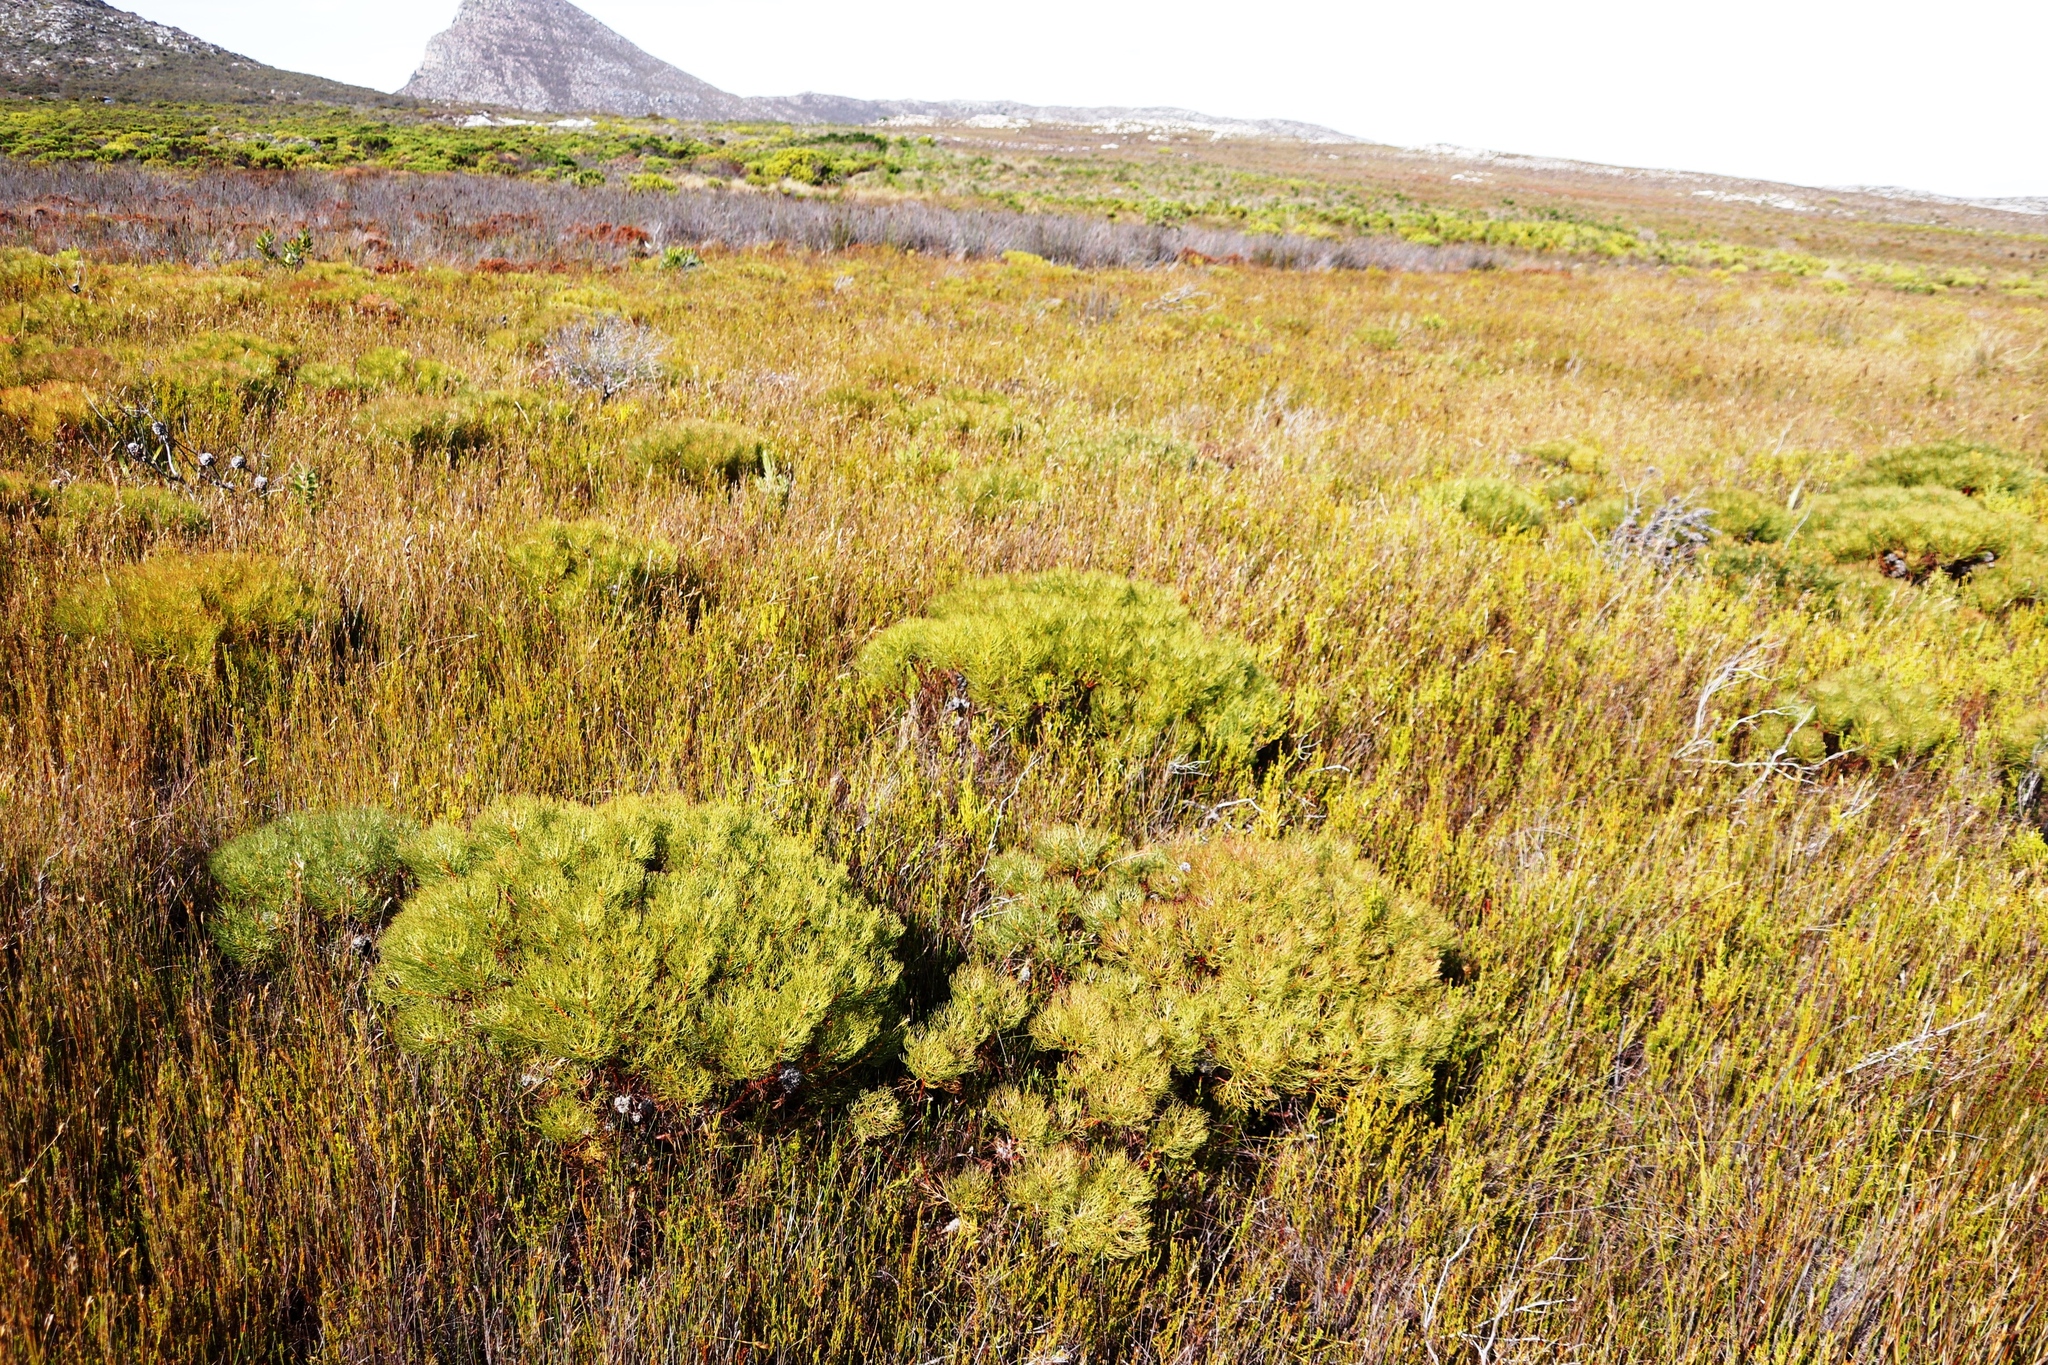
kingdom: Plantae
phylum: Tracheophyta
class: Magnoliopsida
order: Proteales
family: Proteaceae
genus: Serruria
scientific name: Serruria glomerata
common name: Cluster spiderhead
